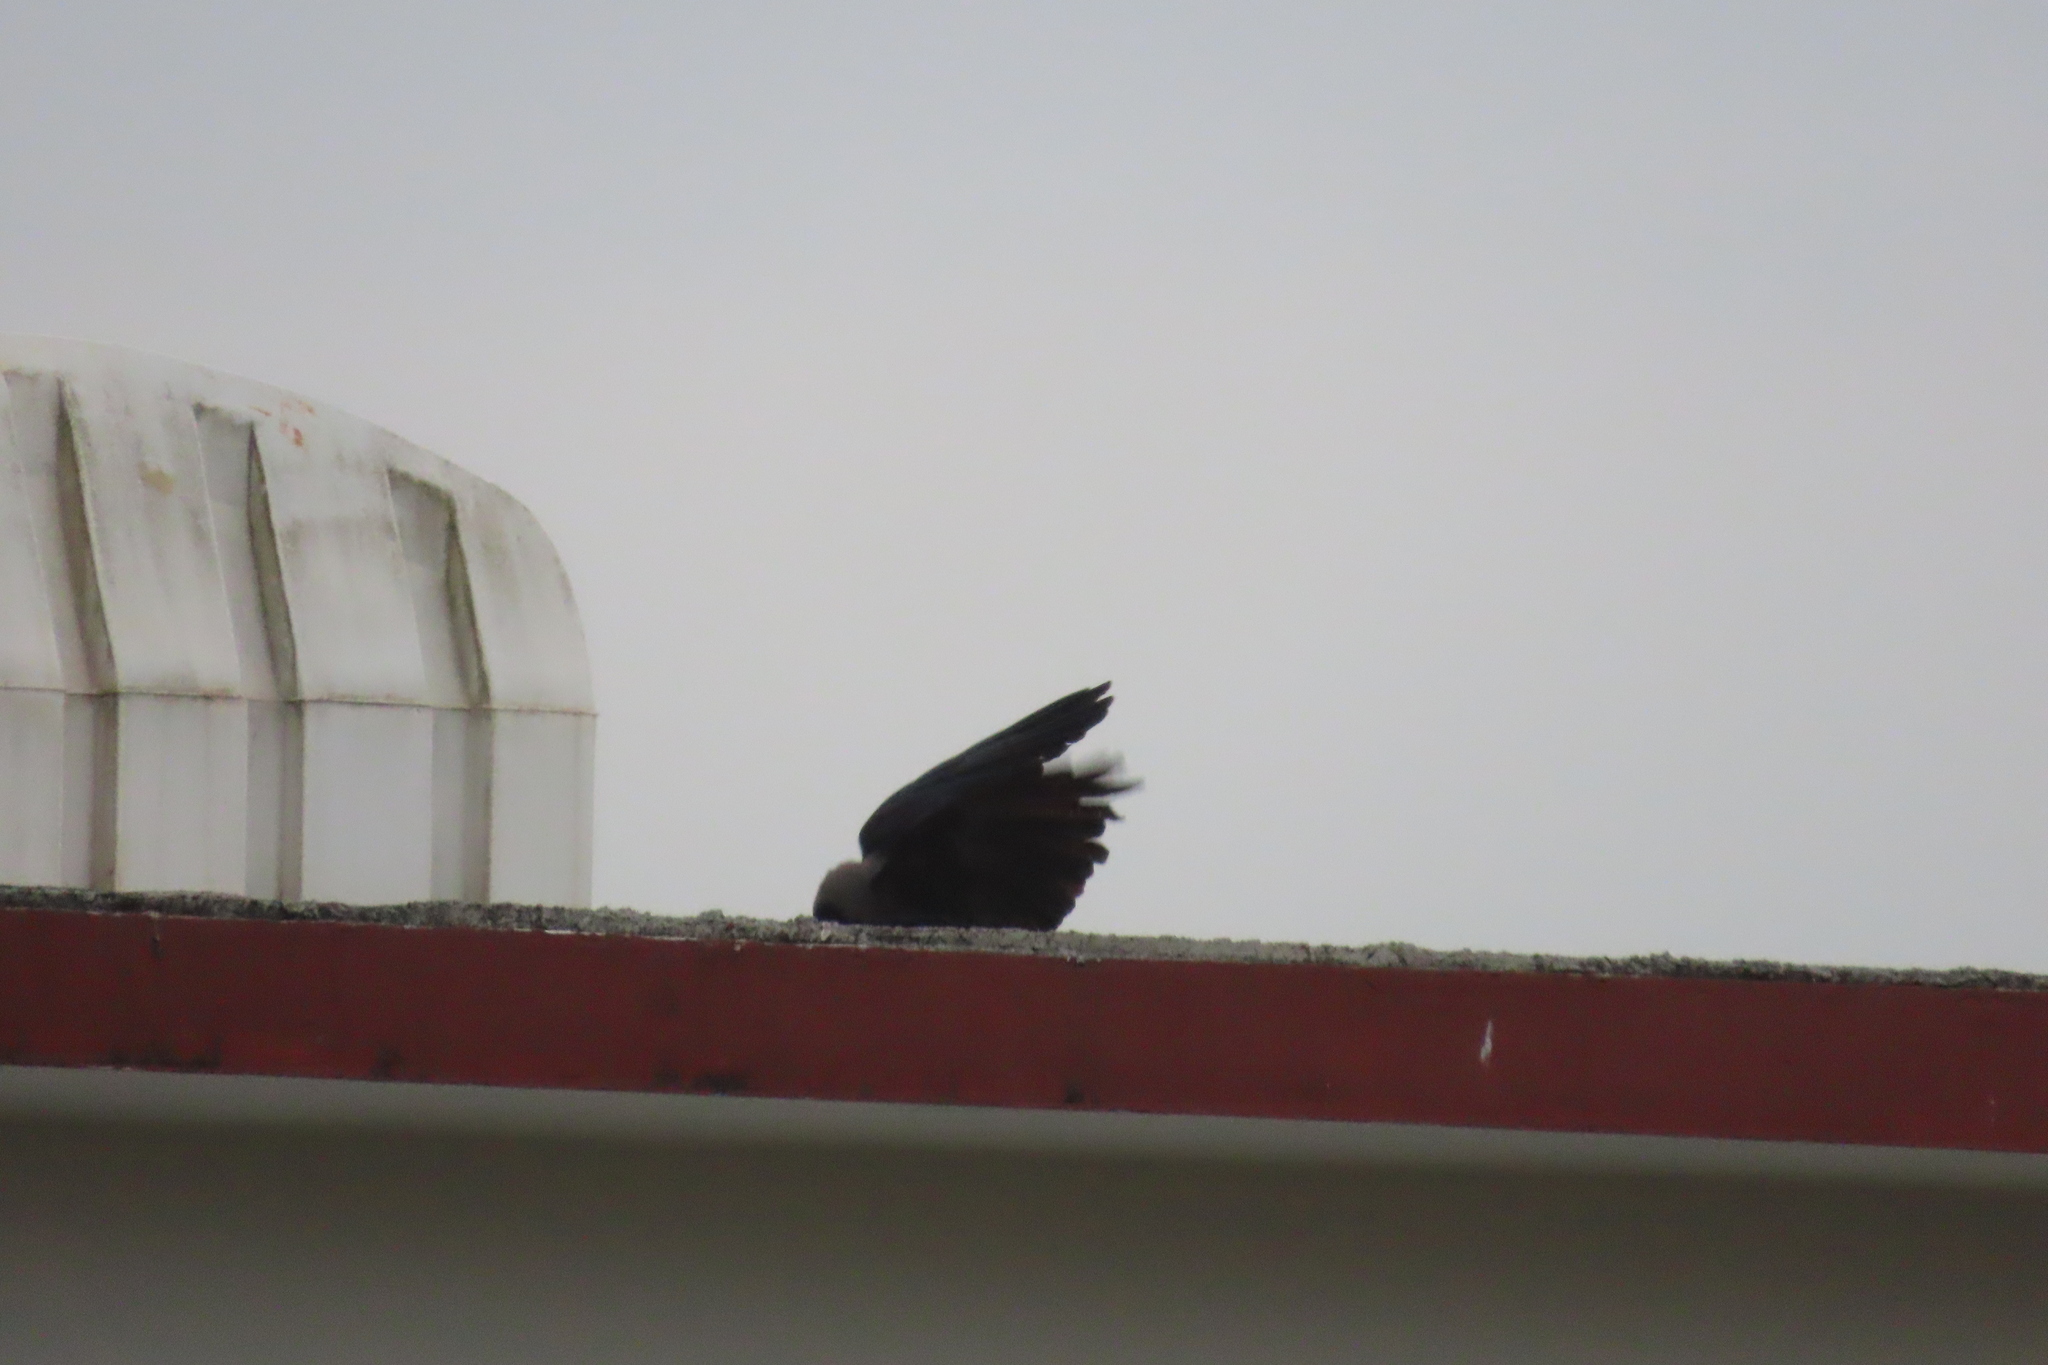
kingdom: Animalia
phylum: Chordata
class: Aves
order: Passeriformes
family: Corvidae
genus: Corvus
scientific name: Corvus splendens
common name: House crow
